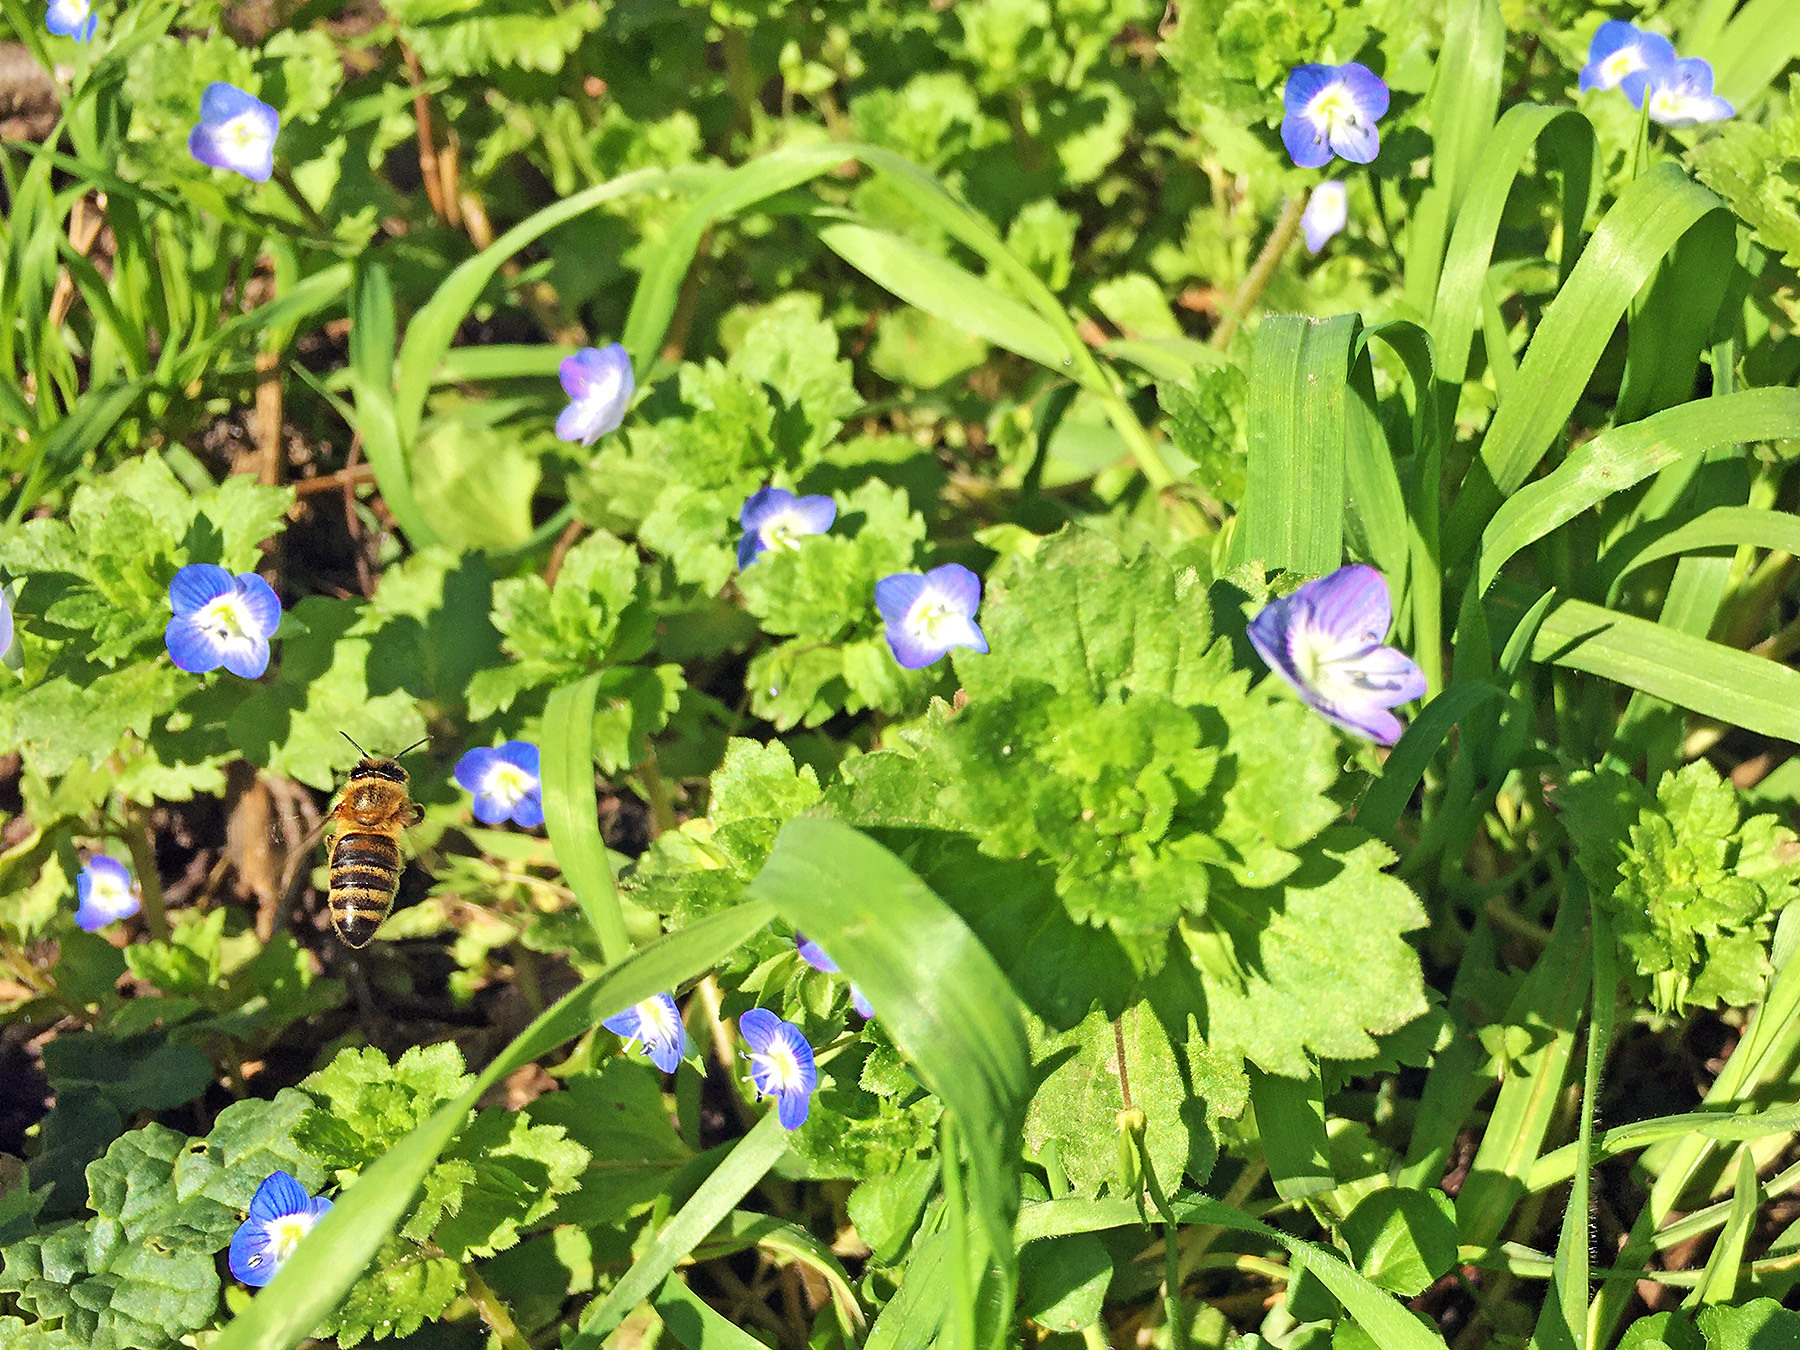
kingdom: Plantae
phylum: Tracheophyta
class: Magnoliopsida
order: Lamiales
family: Plantaginaceae
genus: Veronica
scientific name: Veronica persica
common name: Common field-speedwell
